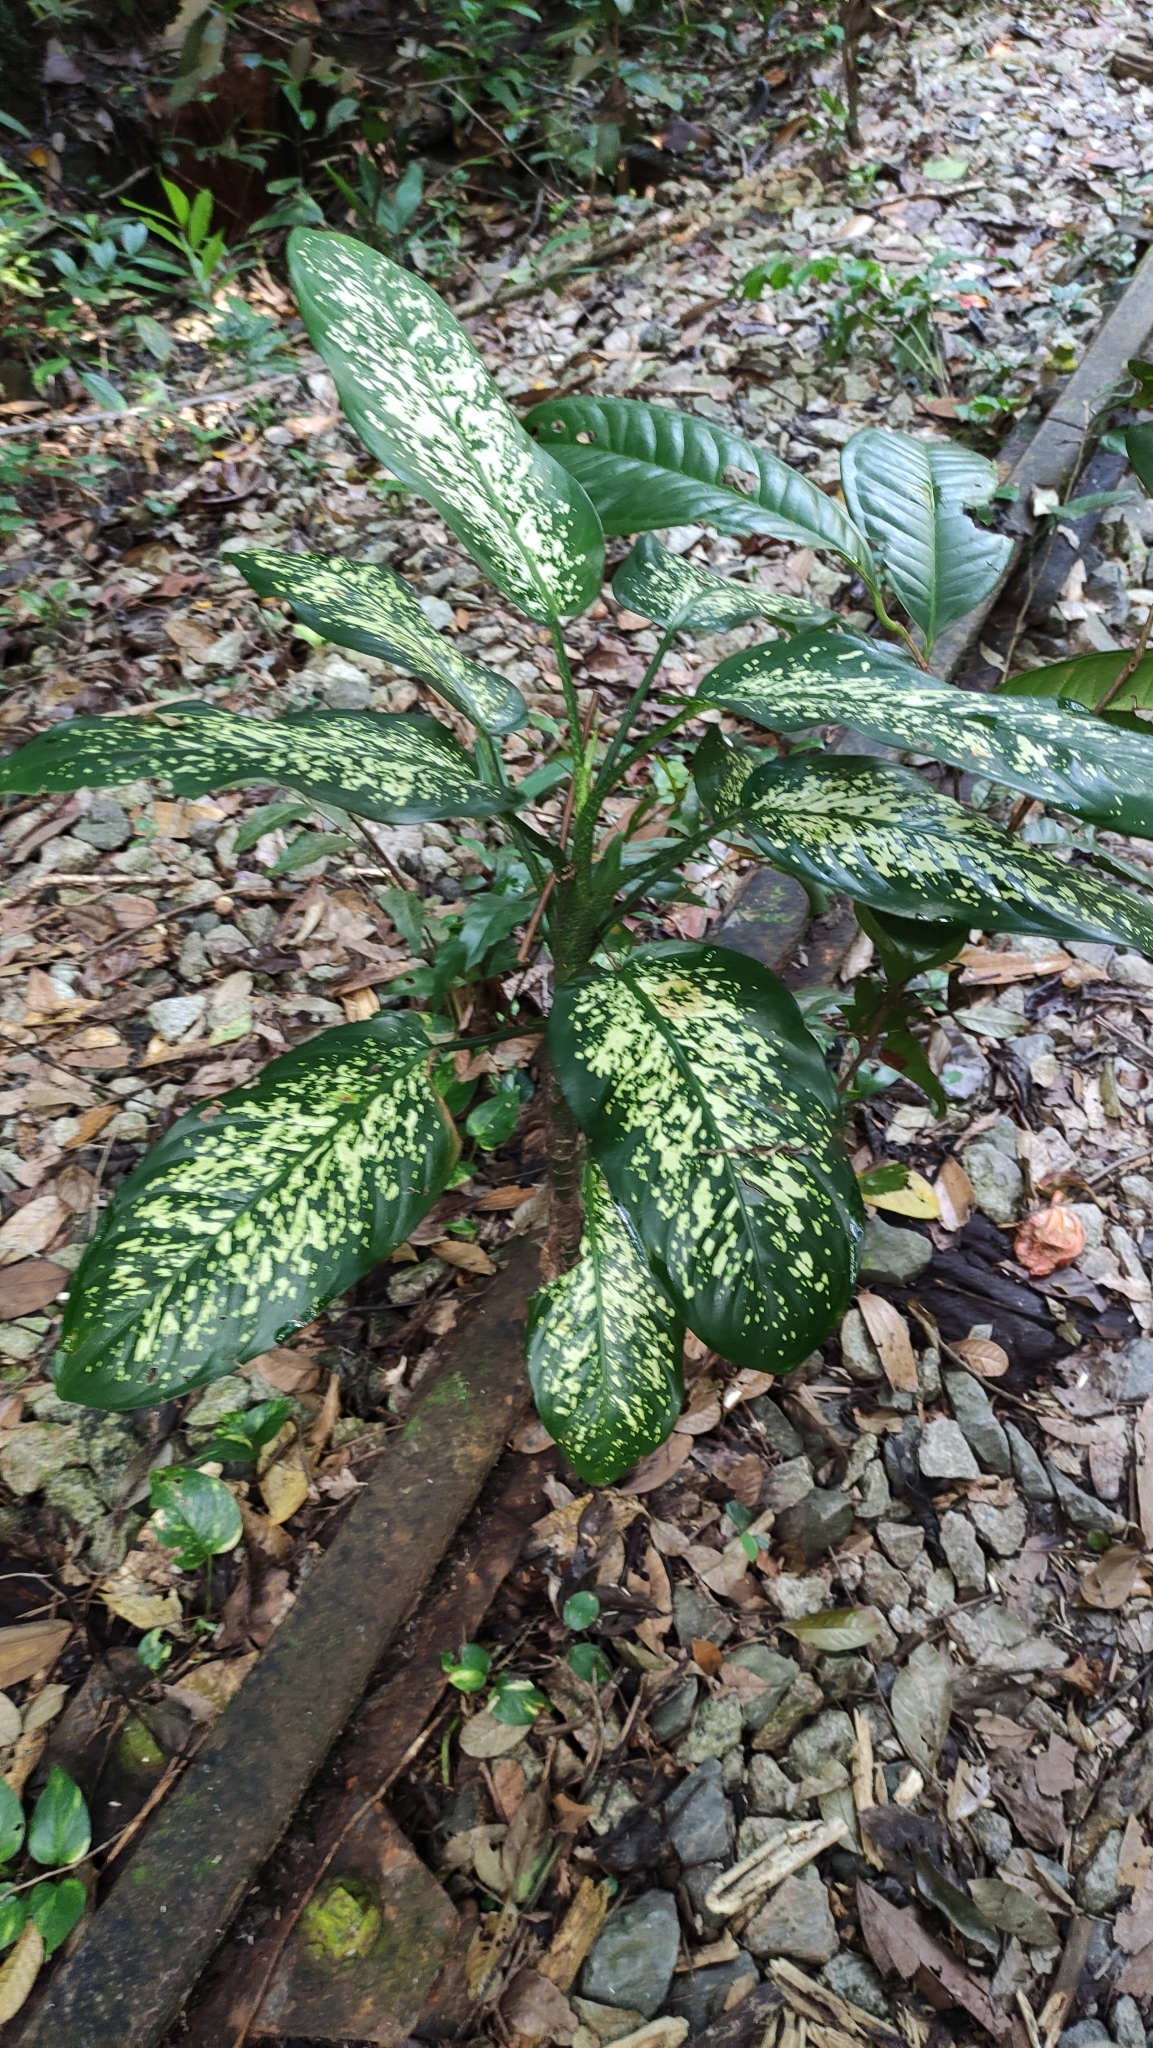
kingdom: Plantae
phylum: Tracheophyta
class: Liliopsida
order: Alismatales
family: Araceae
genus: Dieffenbachia
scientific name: Dieffenbachia seguine
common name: Dumbcane
